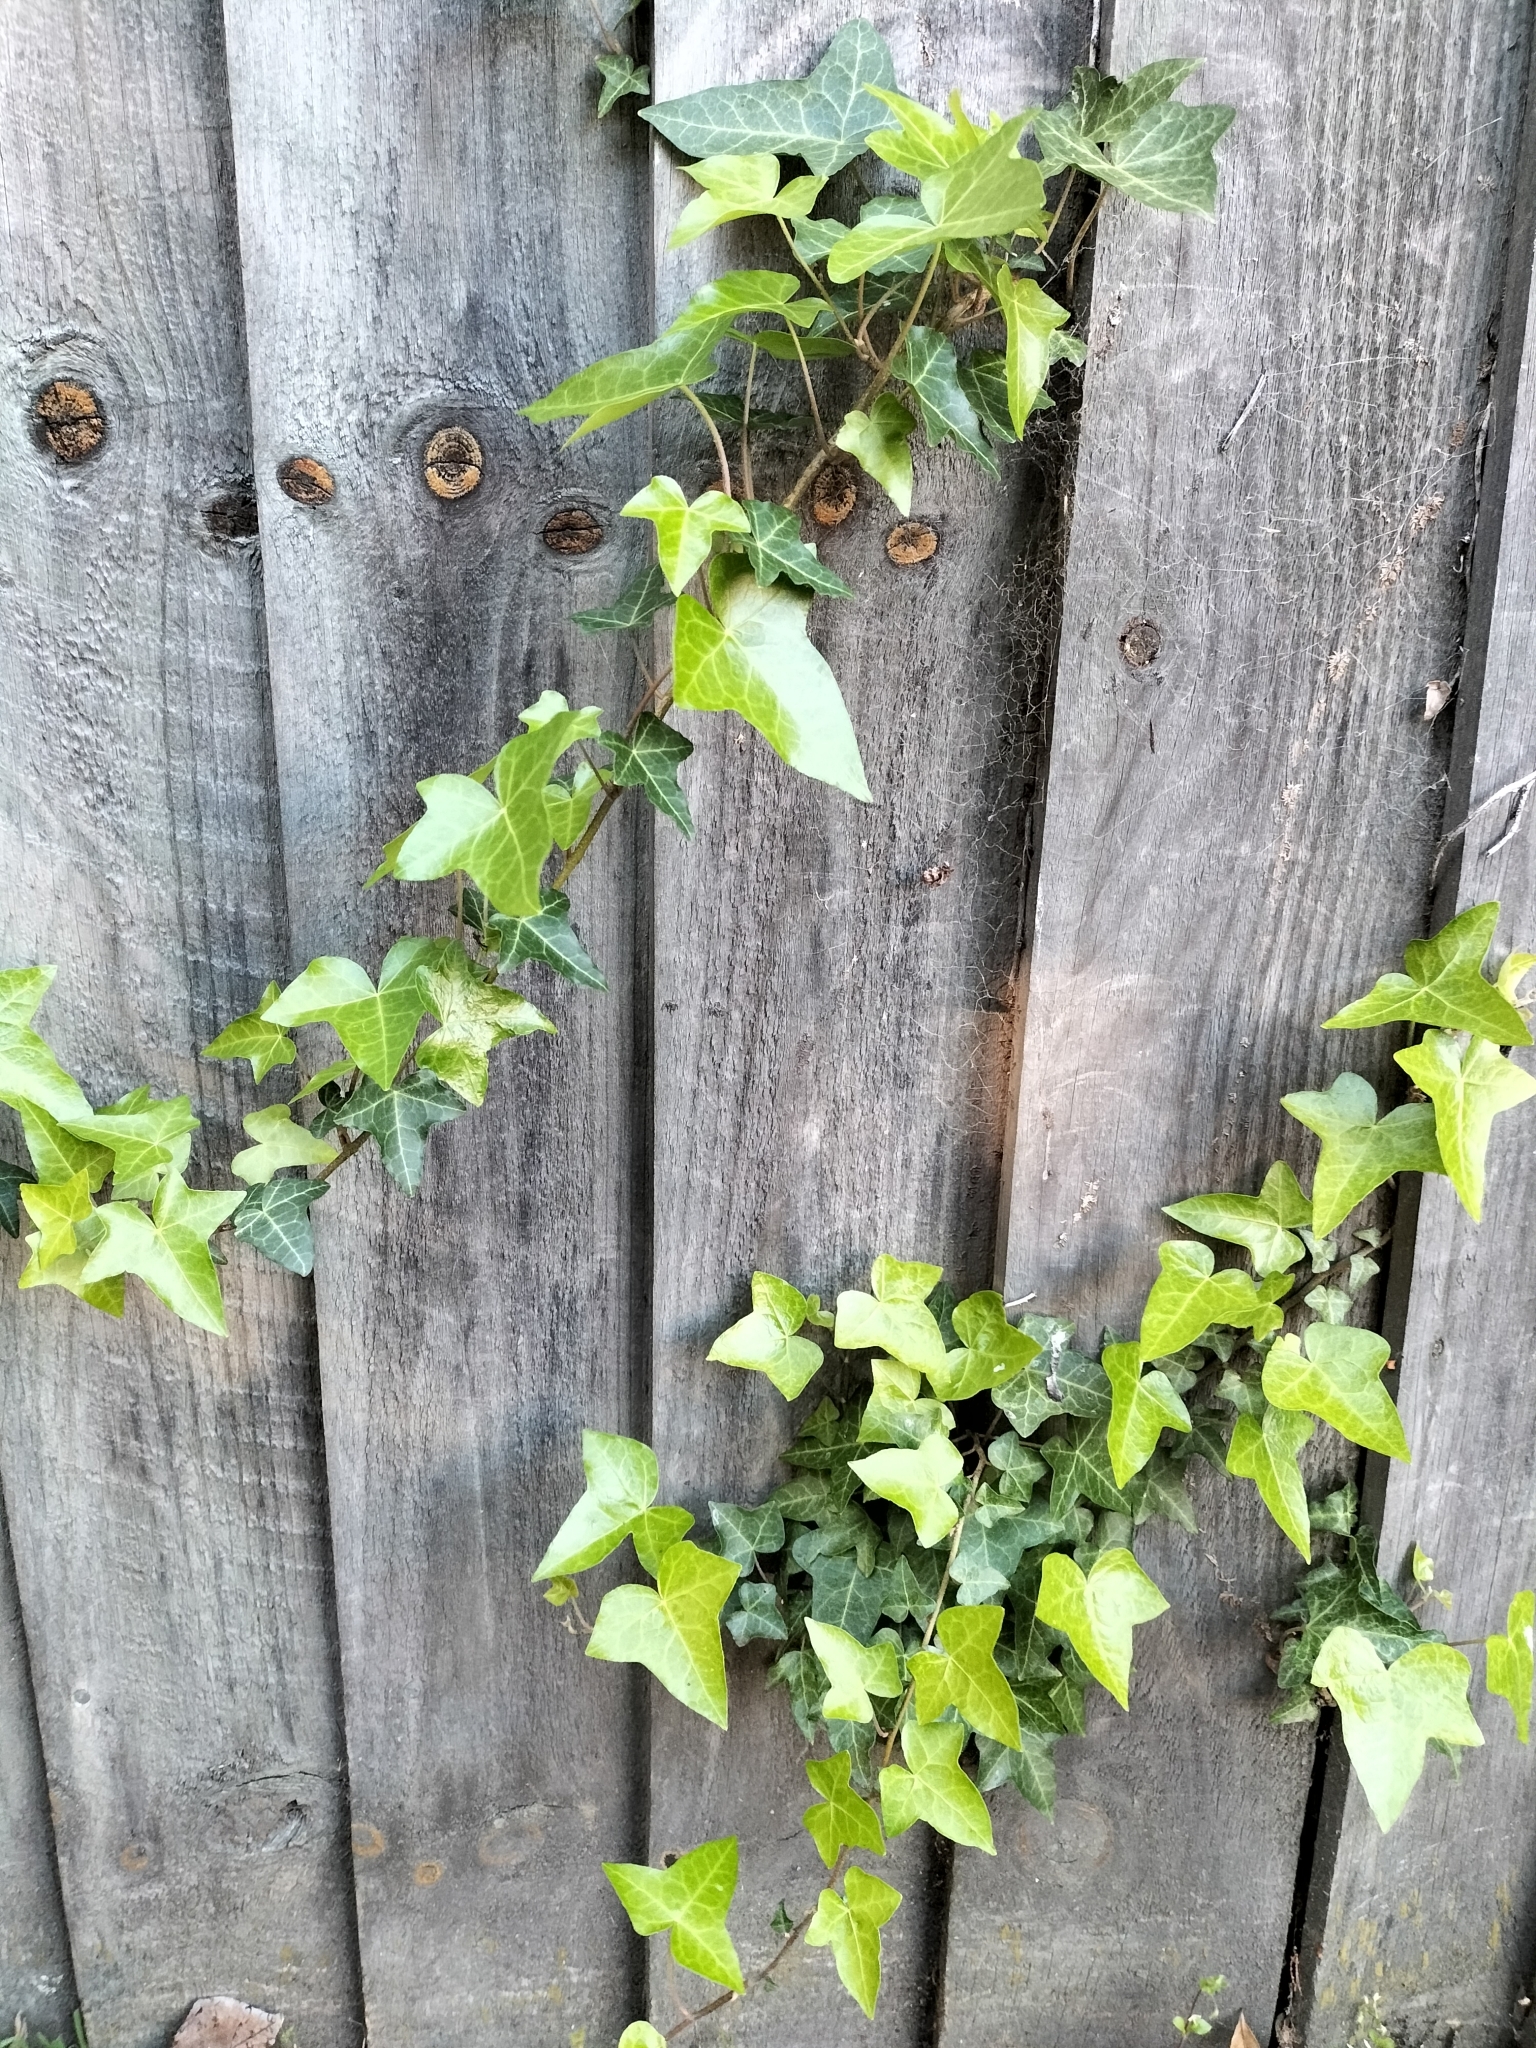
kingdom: Plantae
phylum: Tracheophyta
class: Magnoliopsida
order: Apiales
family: Araliaceae
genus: Hedera
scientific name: Hedera helix
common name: Ivy
